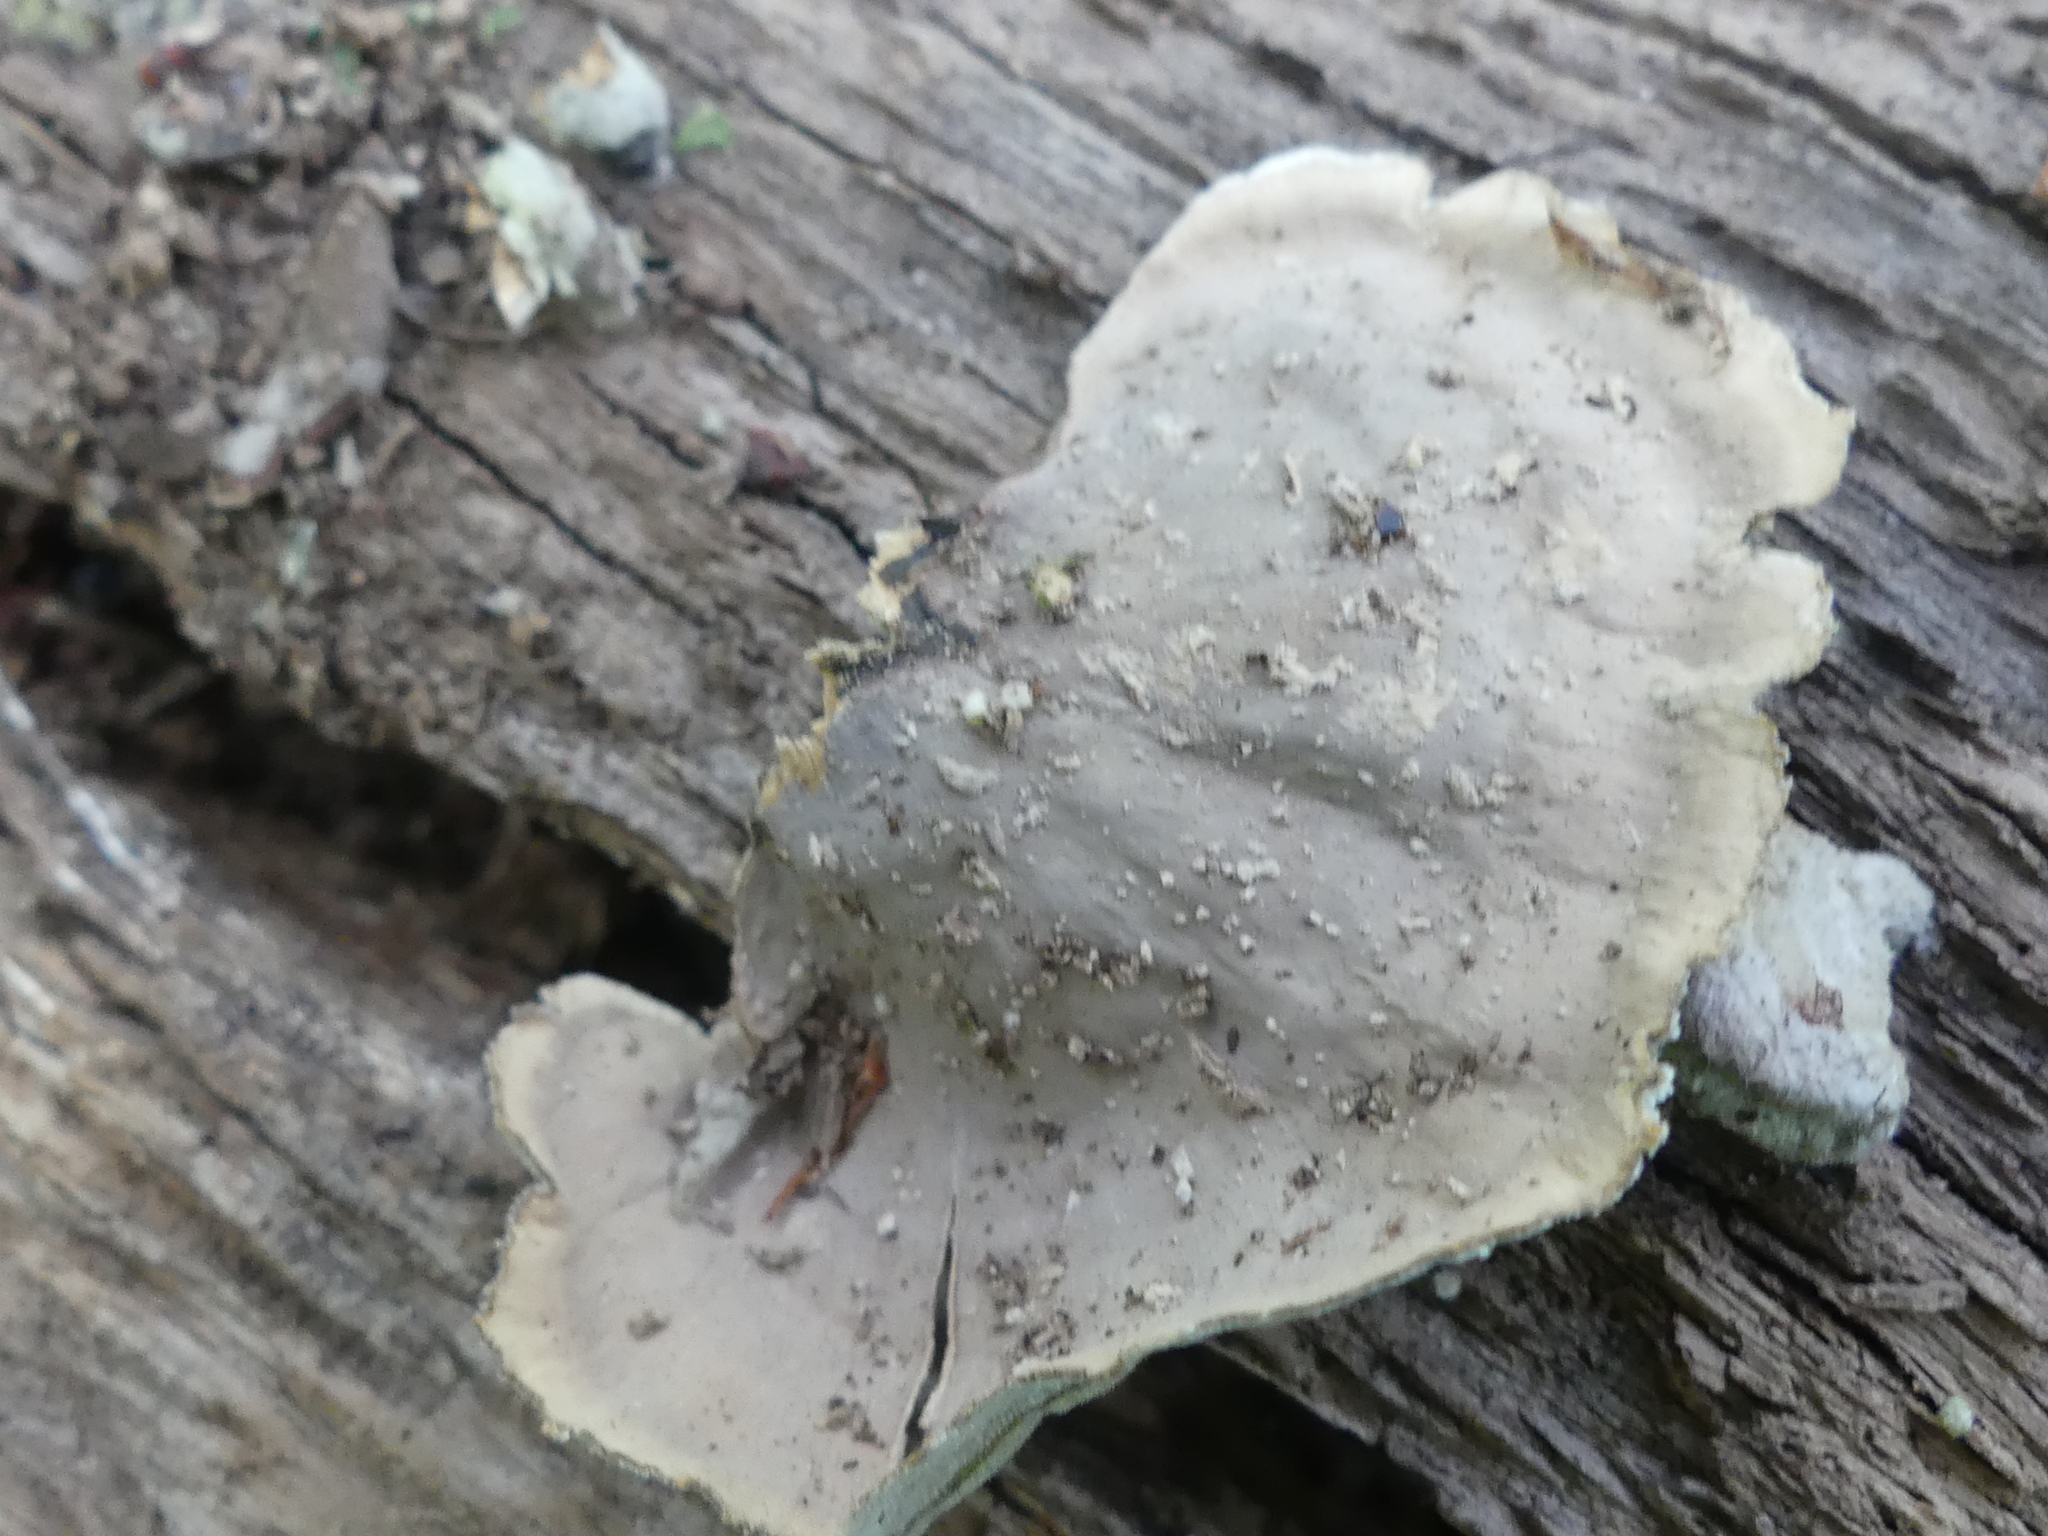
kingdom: Fungi
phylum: Basidiomycota
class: Agaricomycetes
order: Russulales
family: Stereaceae
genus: Stereum
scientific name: Stereum hirsutum
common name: Hairy curtain crust
